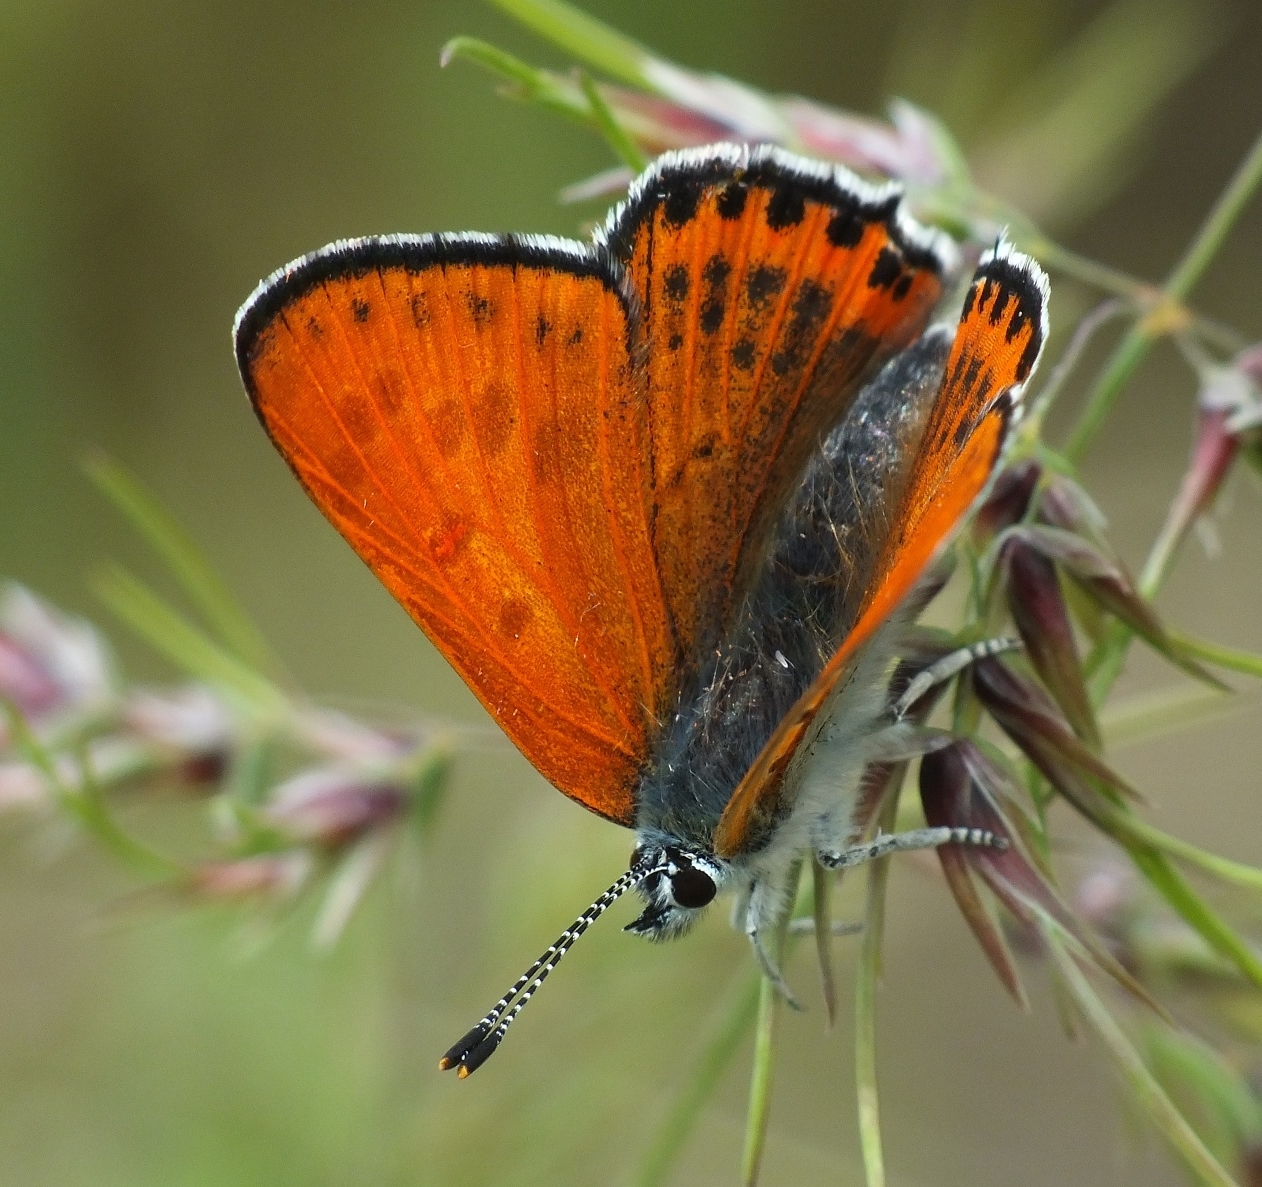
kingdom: Animalia
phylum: Arthropoda
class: Insecta
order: Lepidoptera
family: Lycaenidae
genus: Thersamonia
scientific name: Thersamonia thersamon
